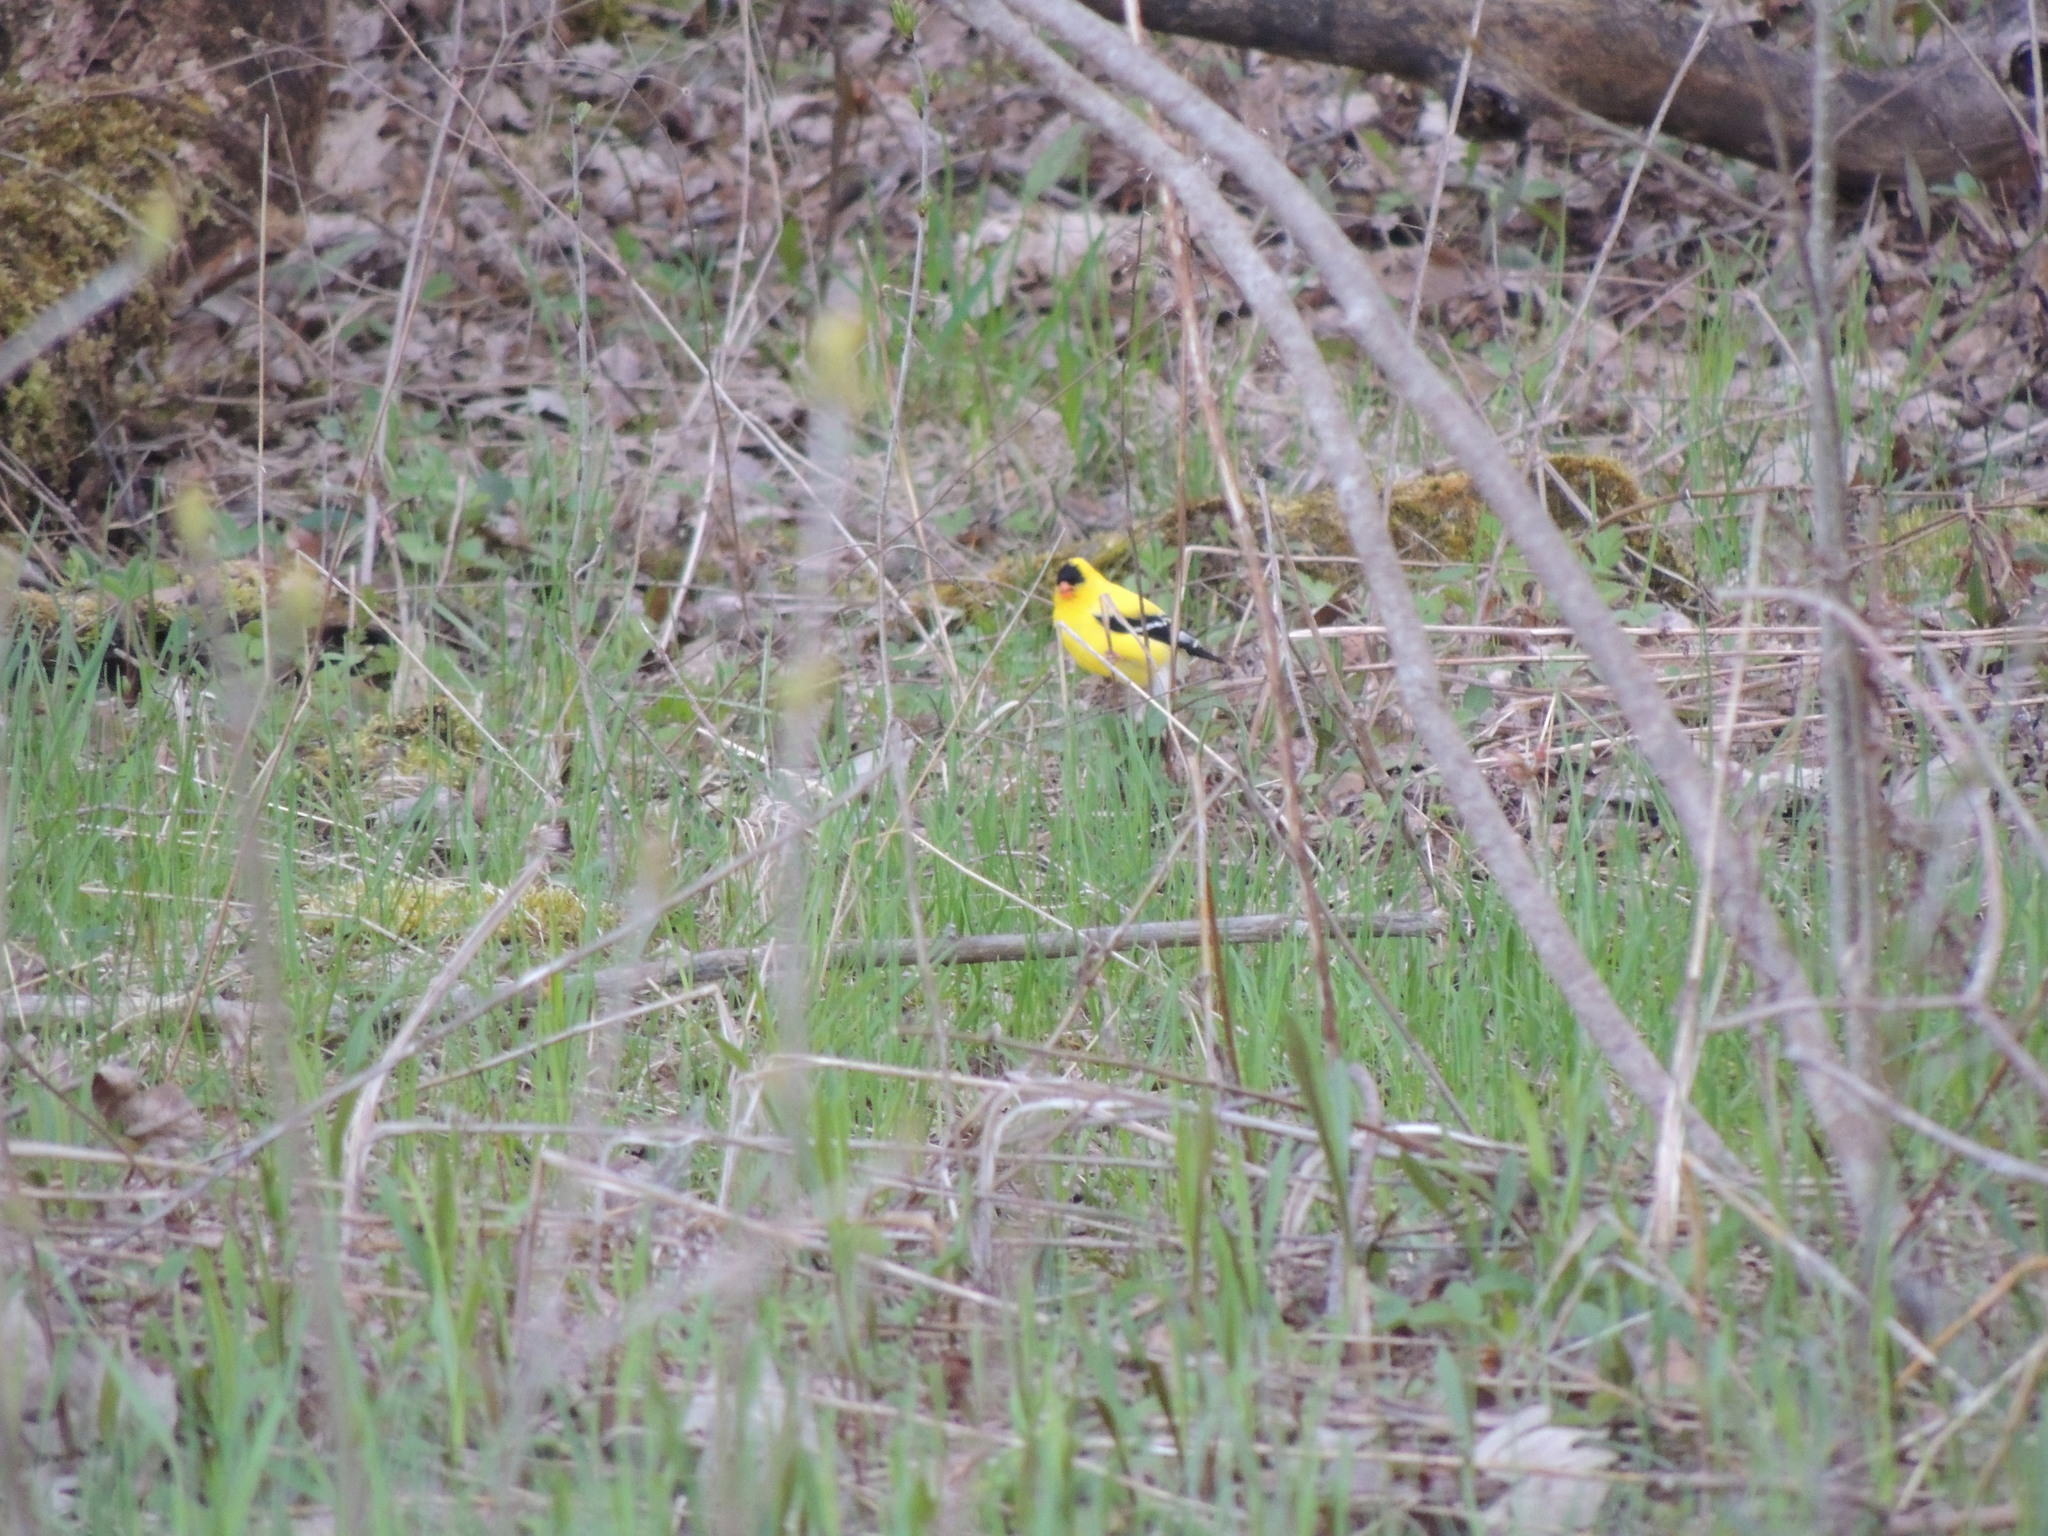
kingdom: Animalia
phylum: Chordata
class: Aves
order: Passeriformes
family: Fringillidae
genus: Spinus
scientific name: Spinus tristis
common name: American goldfinch
